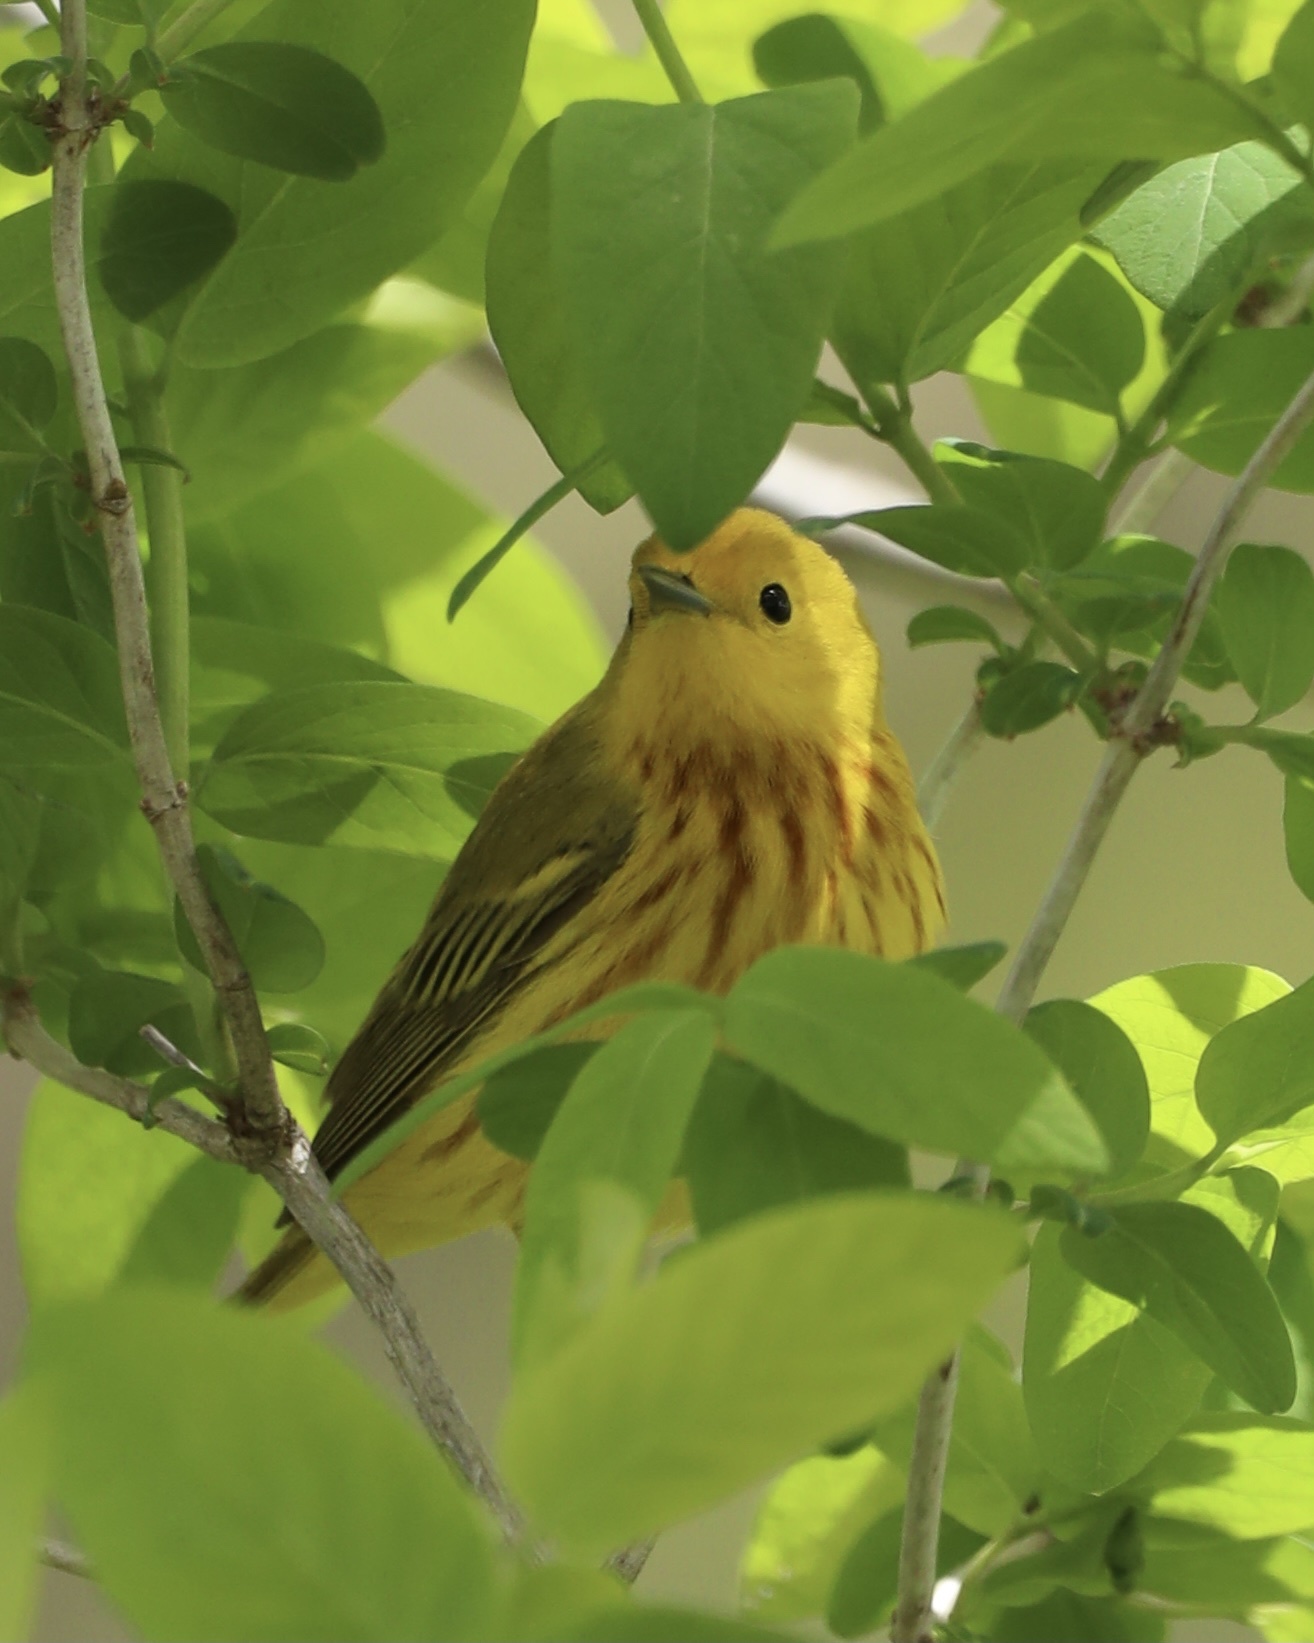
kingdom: Animalia
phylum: Chordata
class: Aves
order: Passeriformes
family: Parulidae
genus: Setophaga
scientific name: Setophaga petechia
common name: Yellow warbler
